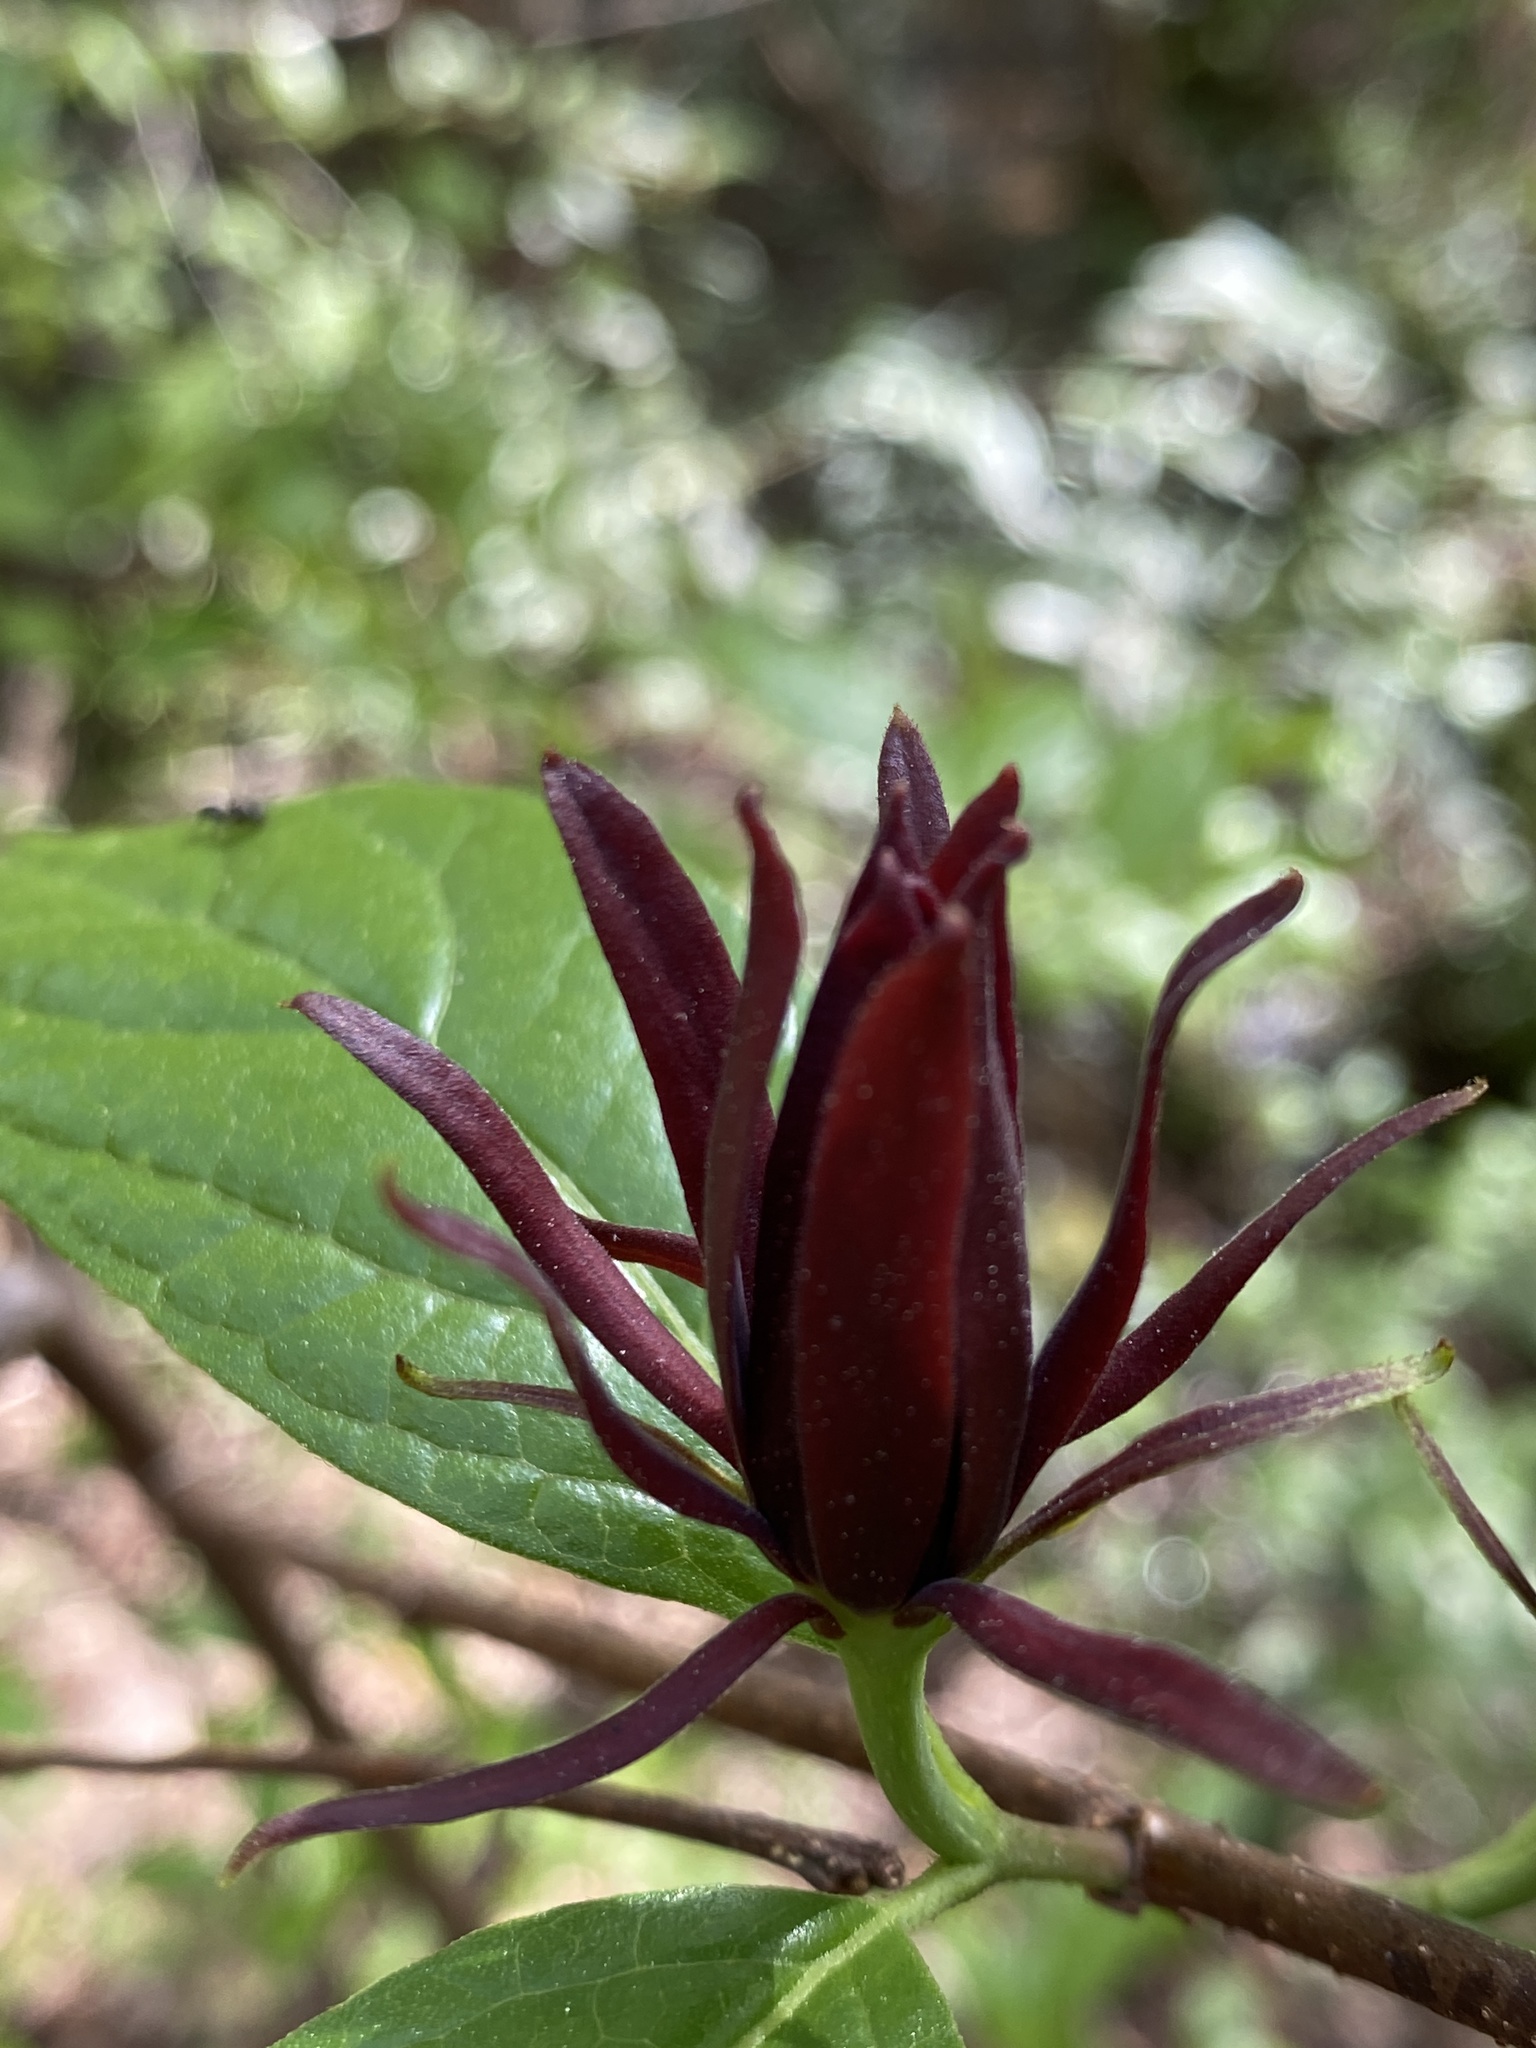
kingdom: Plantae
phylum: Tracheophyta
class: Magnoliopsida
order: Laurales
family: Calycanthaceae
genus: Calycanthus
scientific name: Calycanthus floridus
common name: Carolina-allspice
